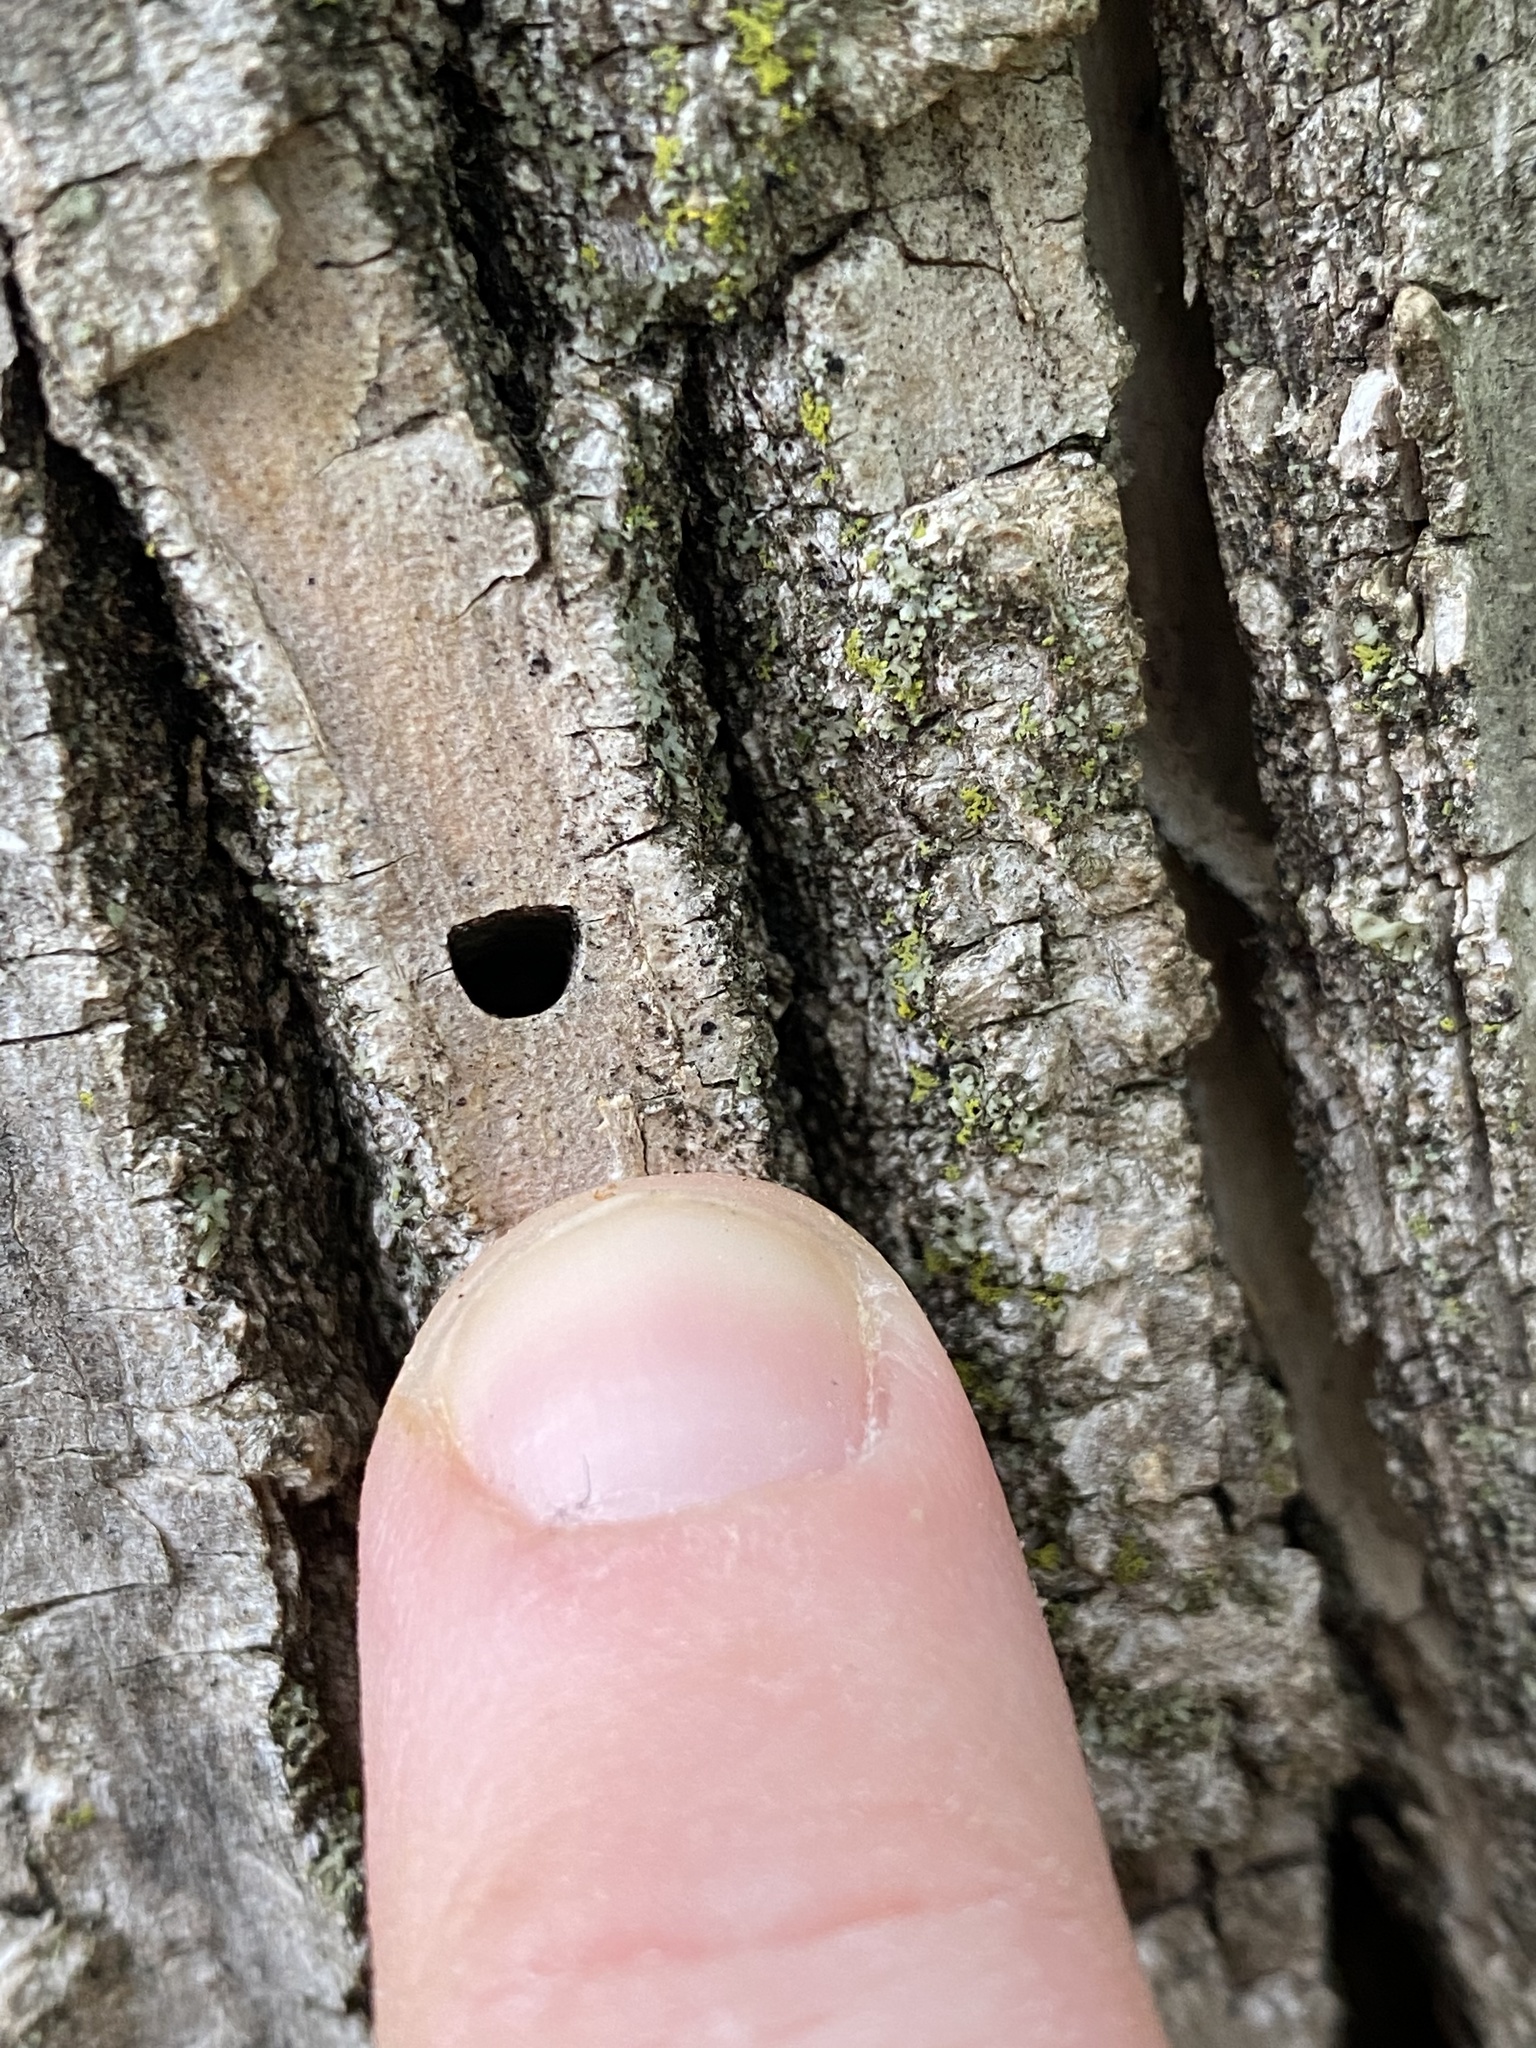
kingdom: Animalia
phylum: Arthropoda
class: Insecta
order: Coleoptera
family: Buprestidae
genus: Agrilus
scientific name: Agrilus planipennis
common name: Emerald ash borer
